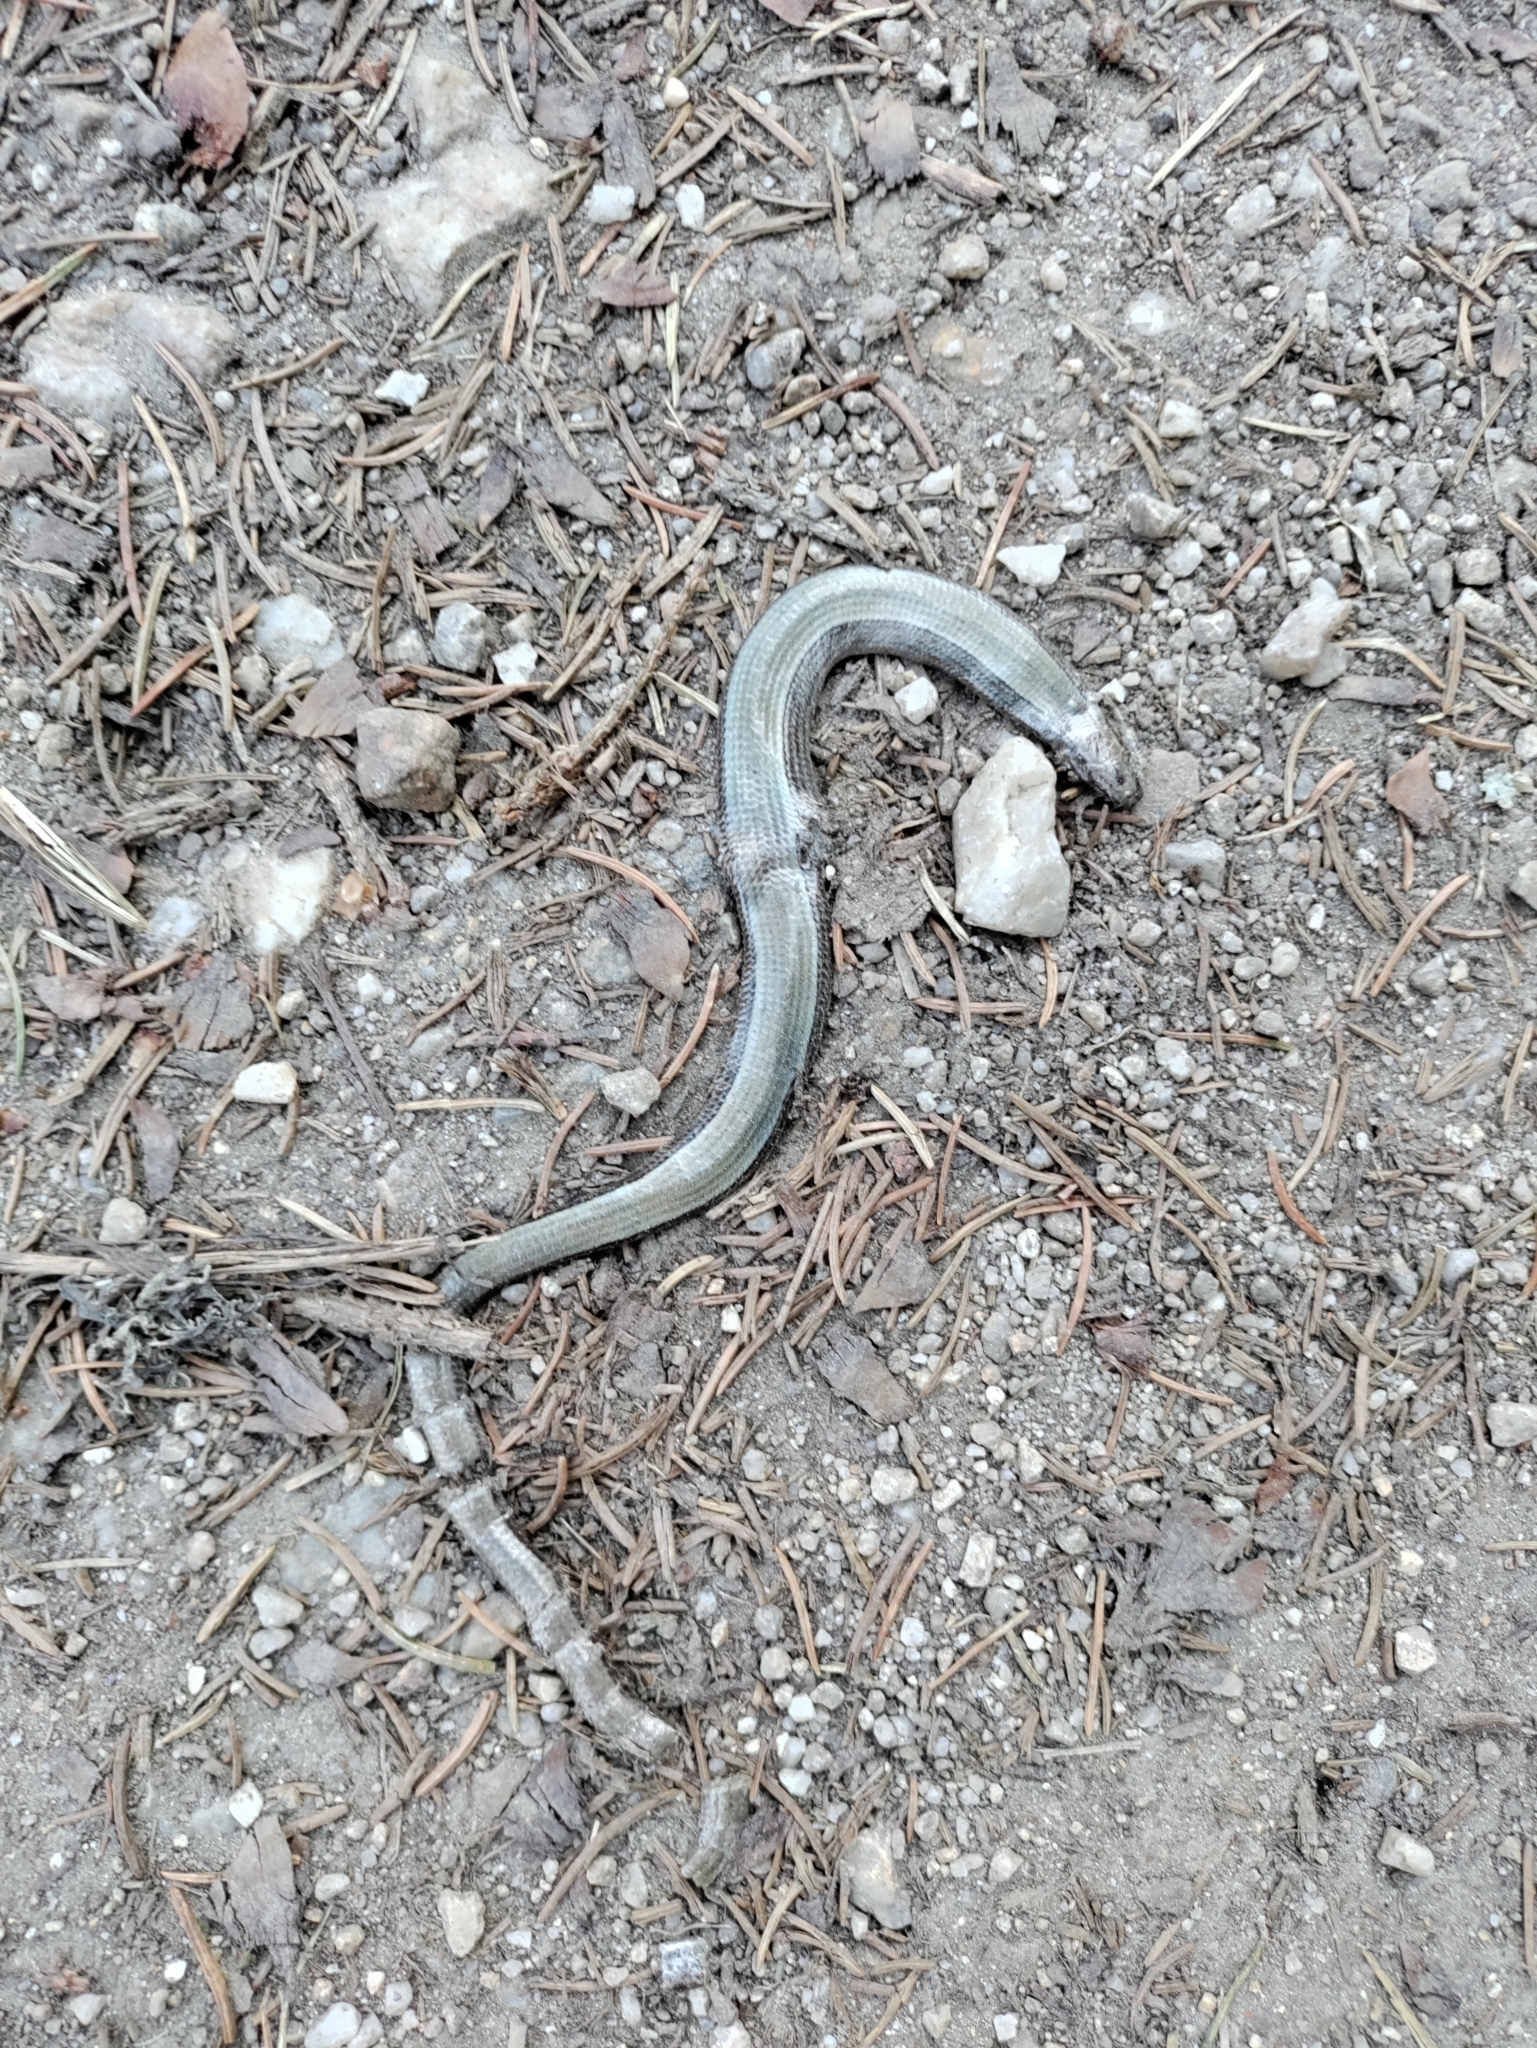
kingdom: Animalia
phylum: Chordata
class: Squamata
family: Anguidae
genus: Anguis
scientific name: Anguis fragilis
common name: Slow worm
